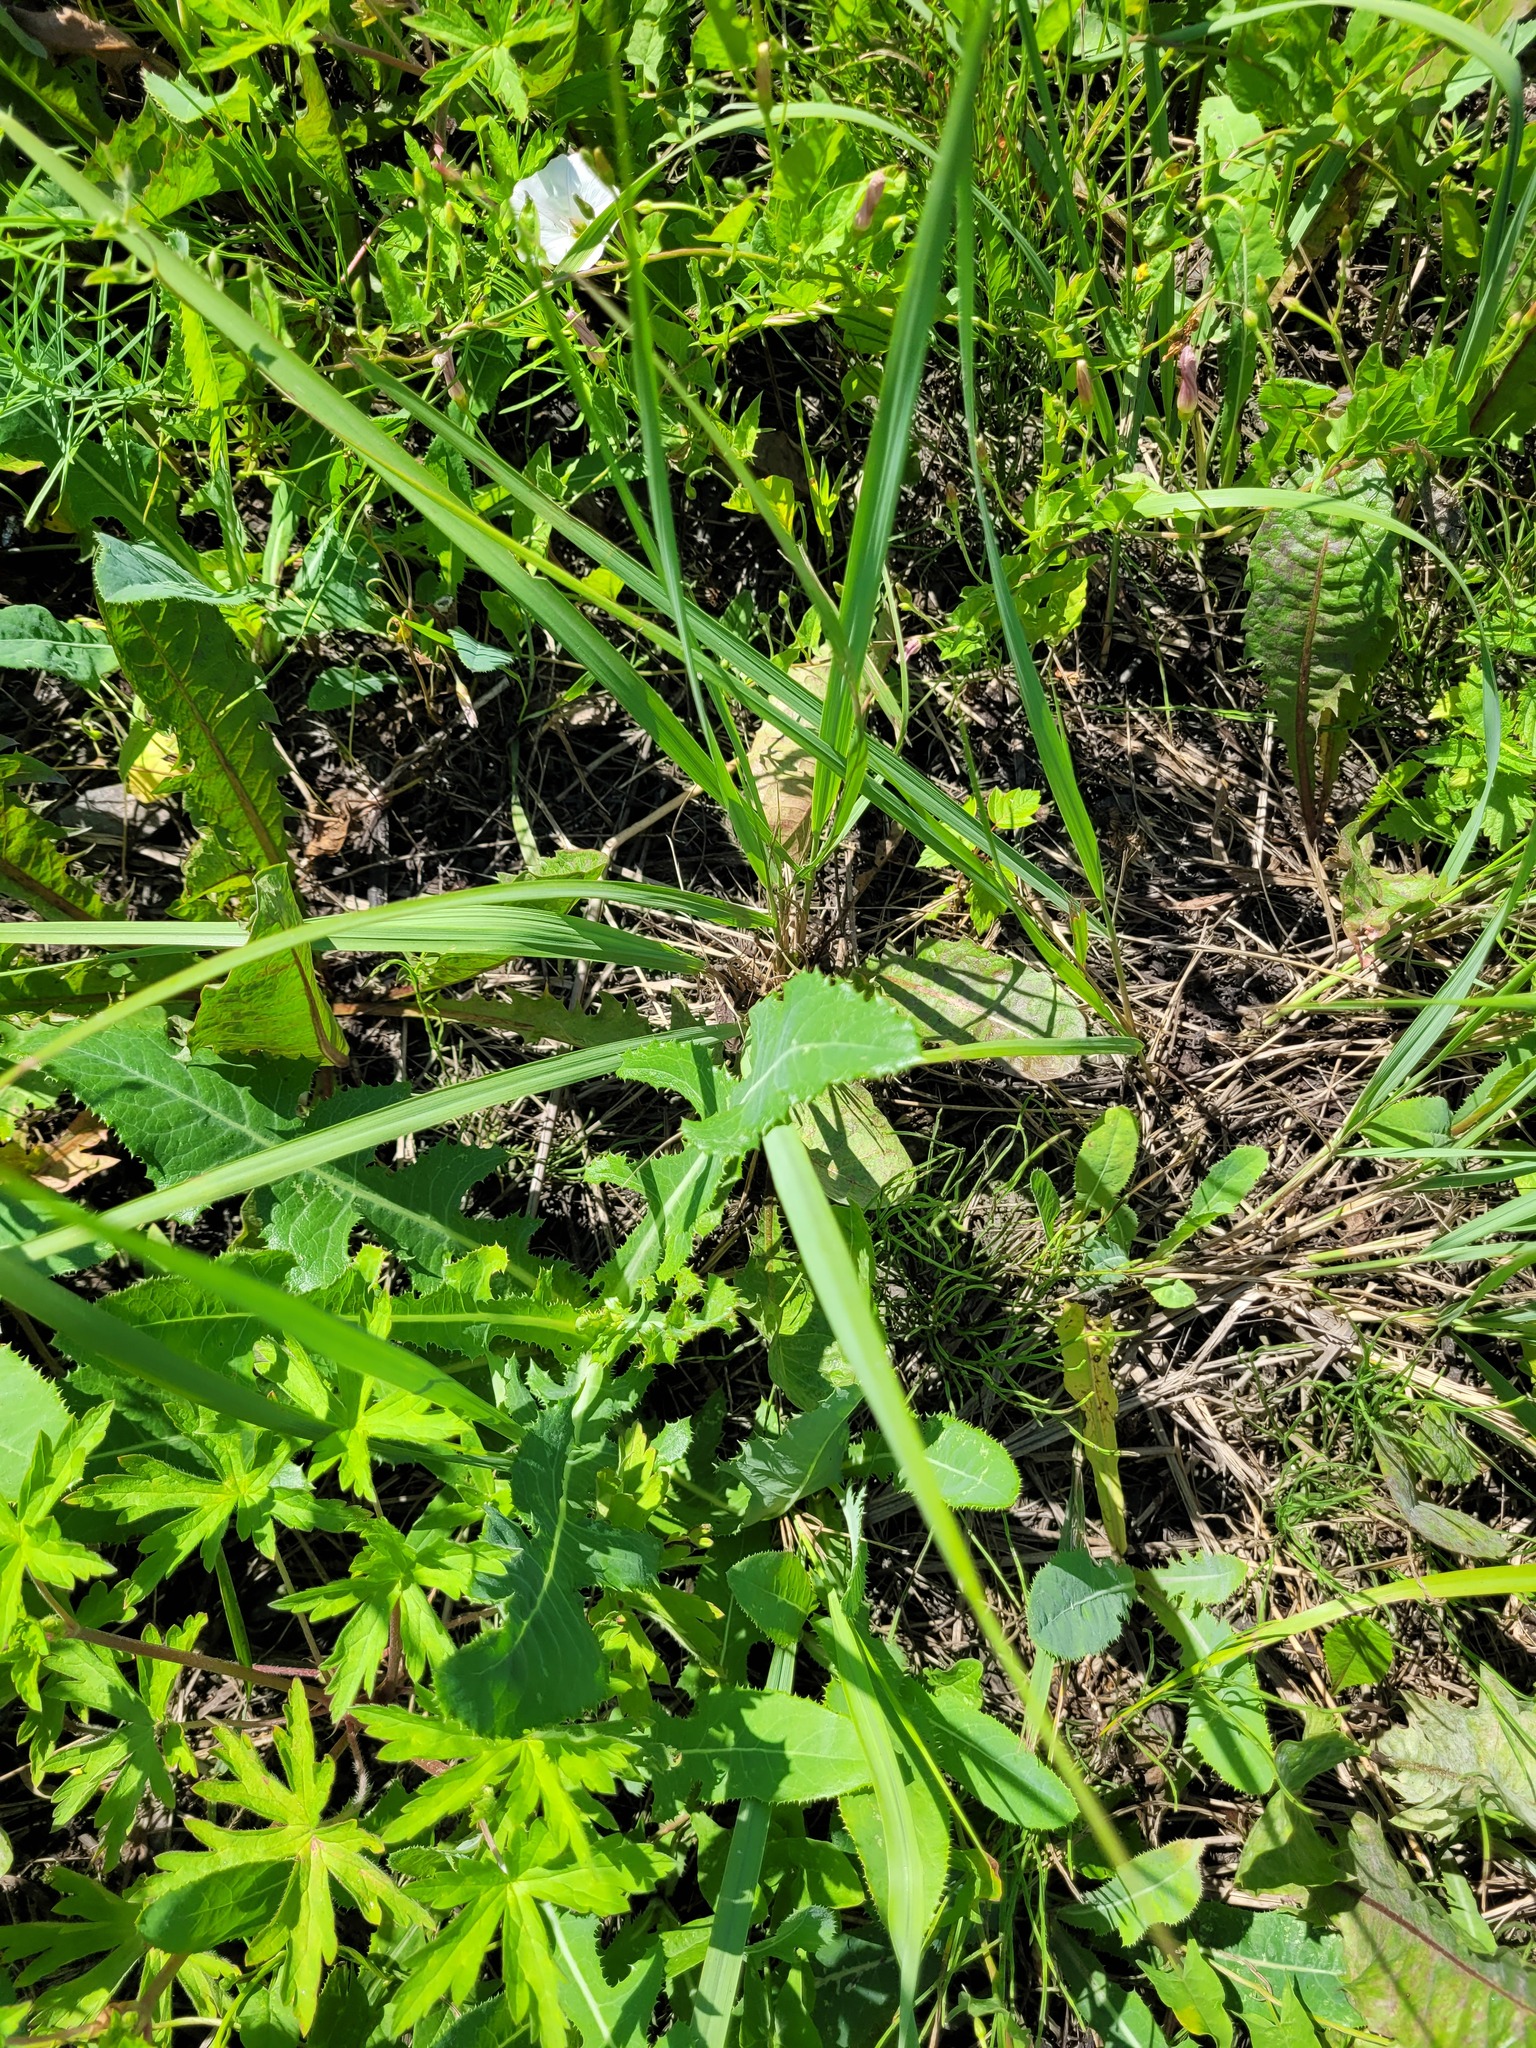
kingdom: Plantae
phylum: Tracheophyta
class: Magnoliopsida
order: Asterales
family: Asteraceae
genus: Sonchus
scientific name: Sonchus arvensis
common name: Perennial sow-thistle
